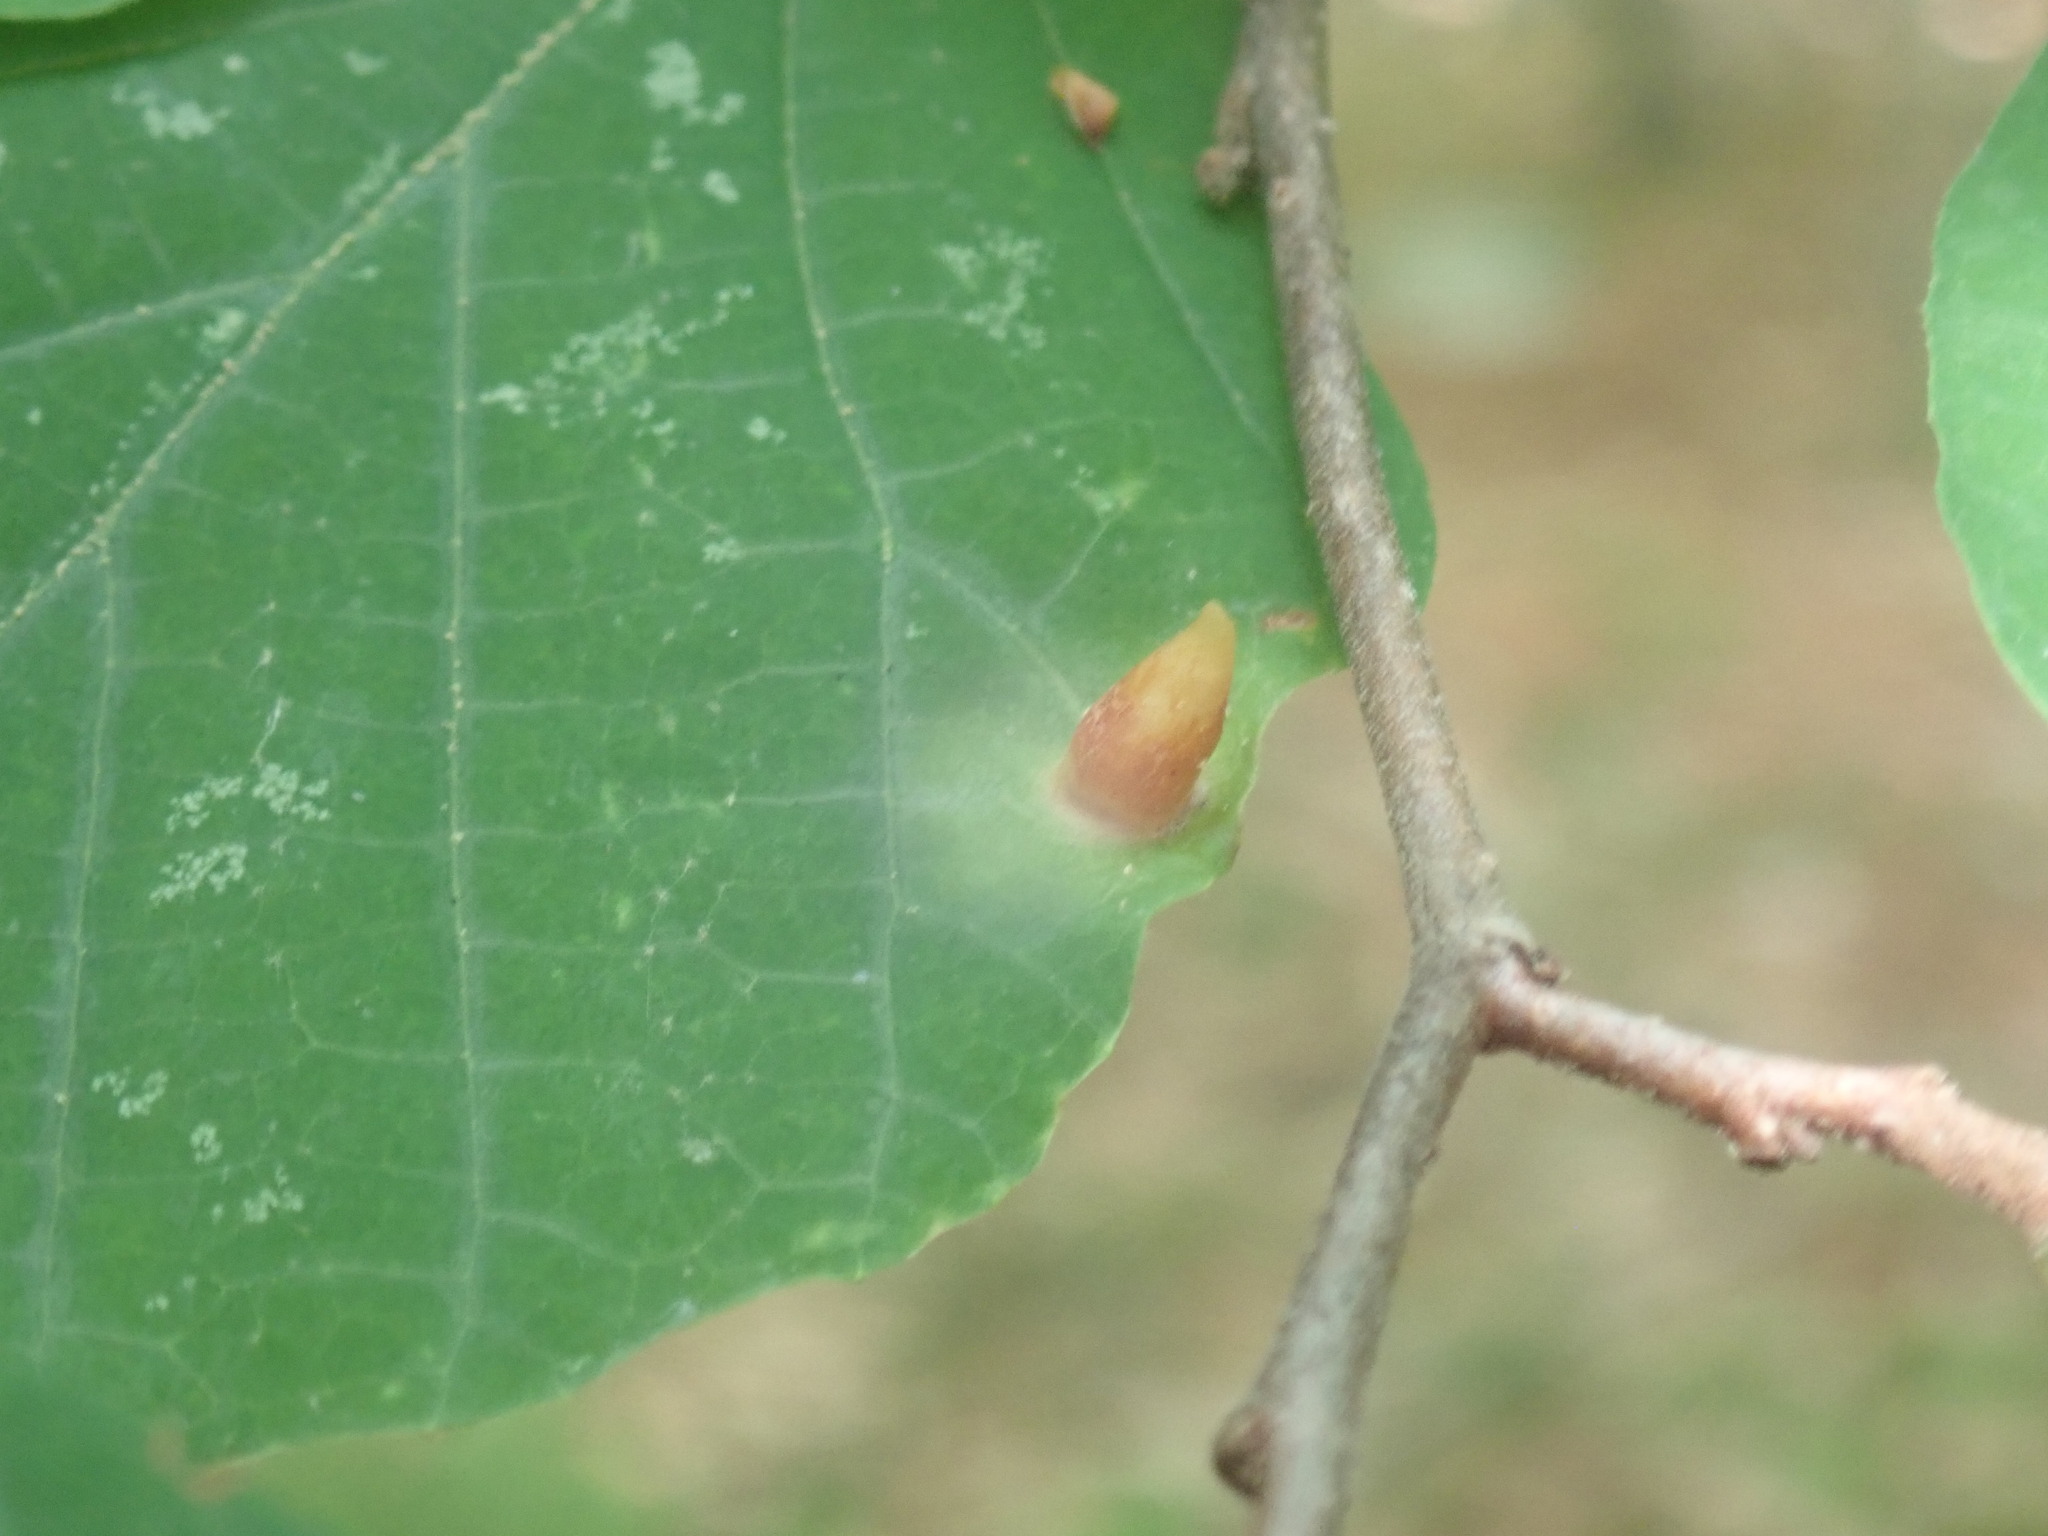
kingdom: Animalia
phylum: Arthropoda
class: Insecta
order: Hemiptera
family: Aphididae
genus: Hormaphis
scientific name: Hormaphis hamamelidis
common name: Witch-hazel cone gall aphid
